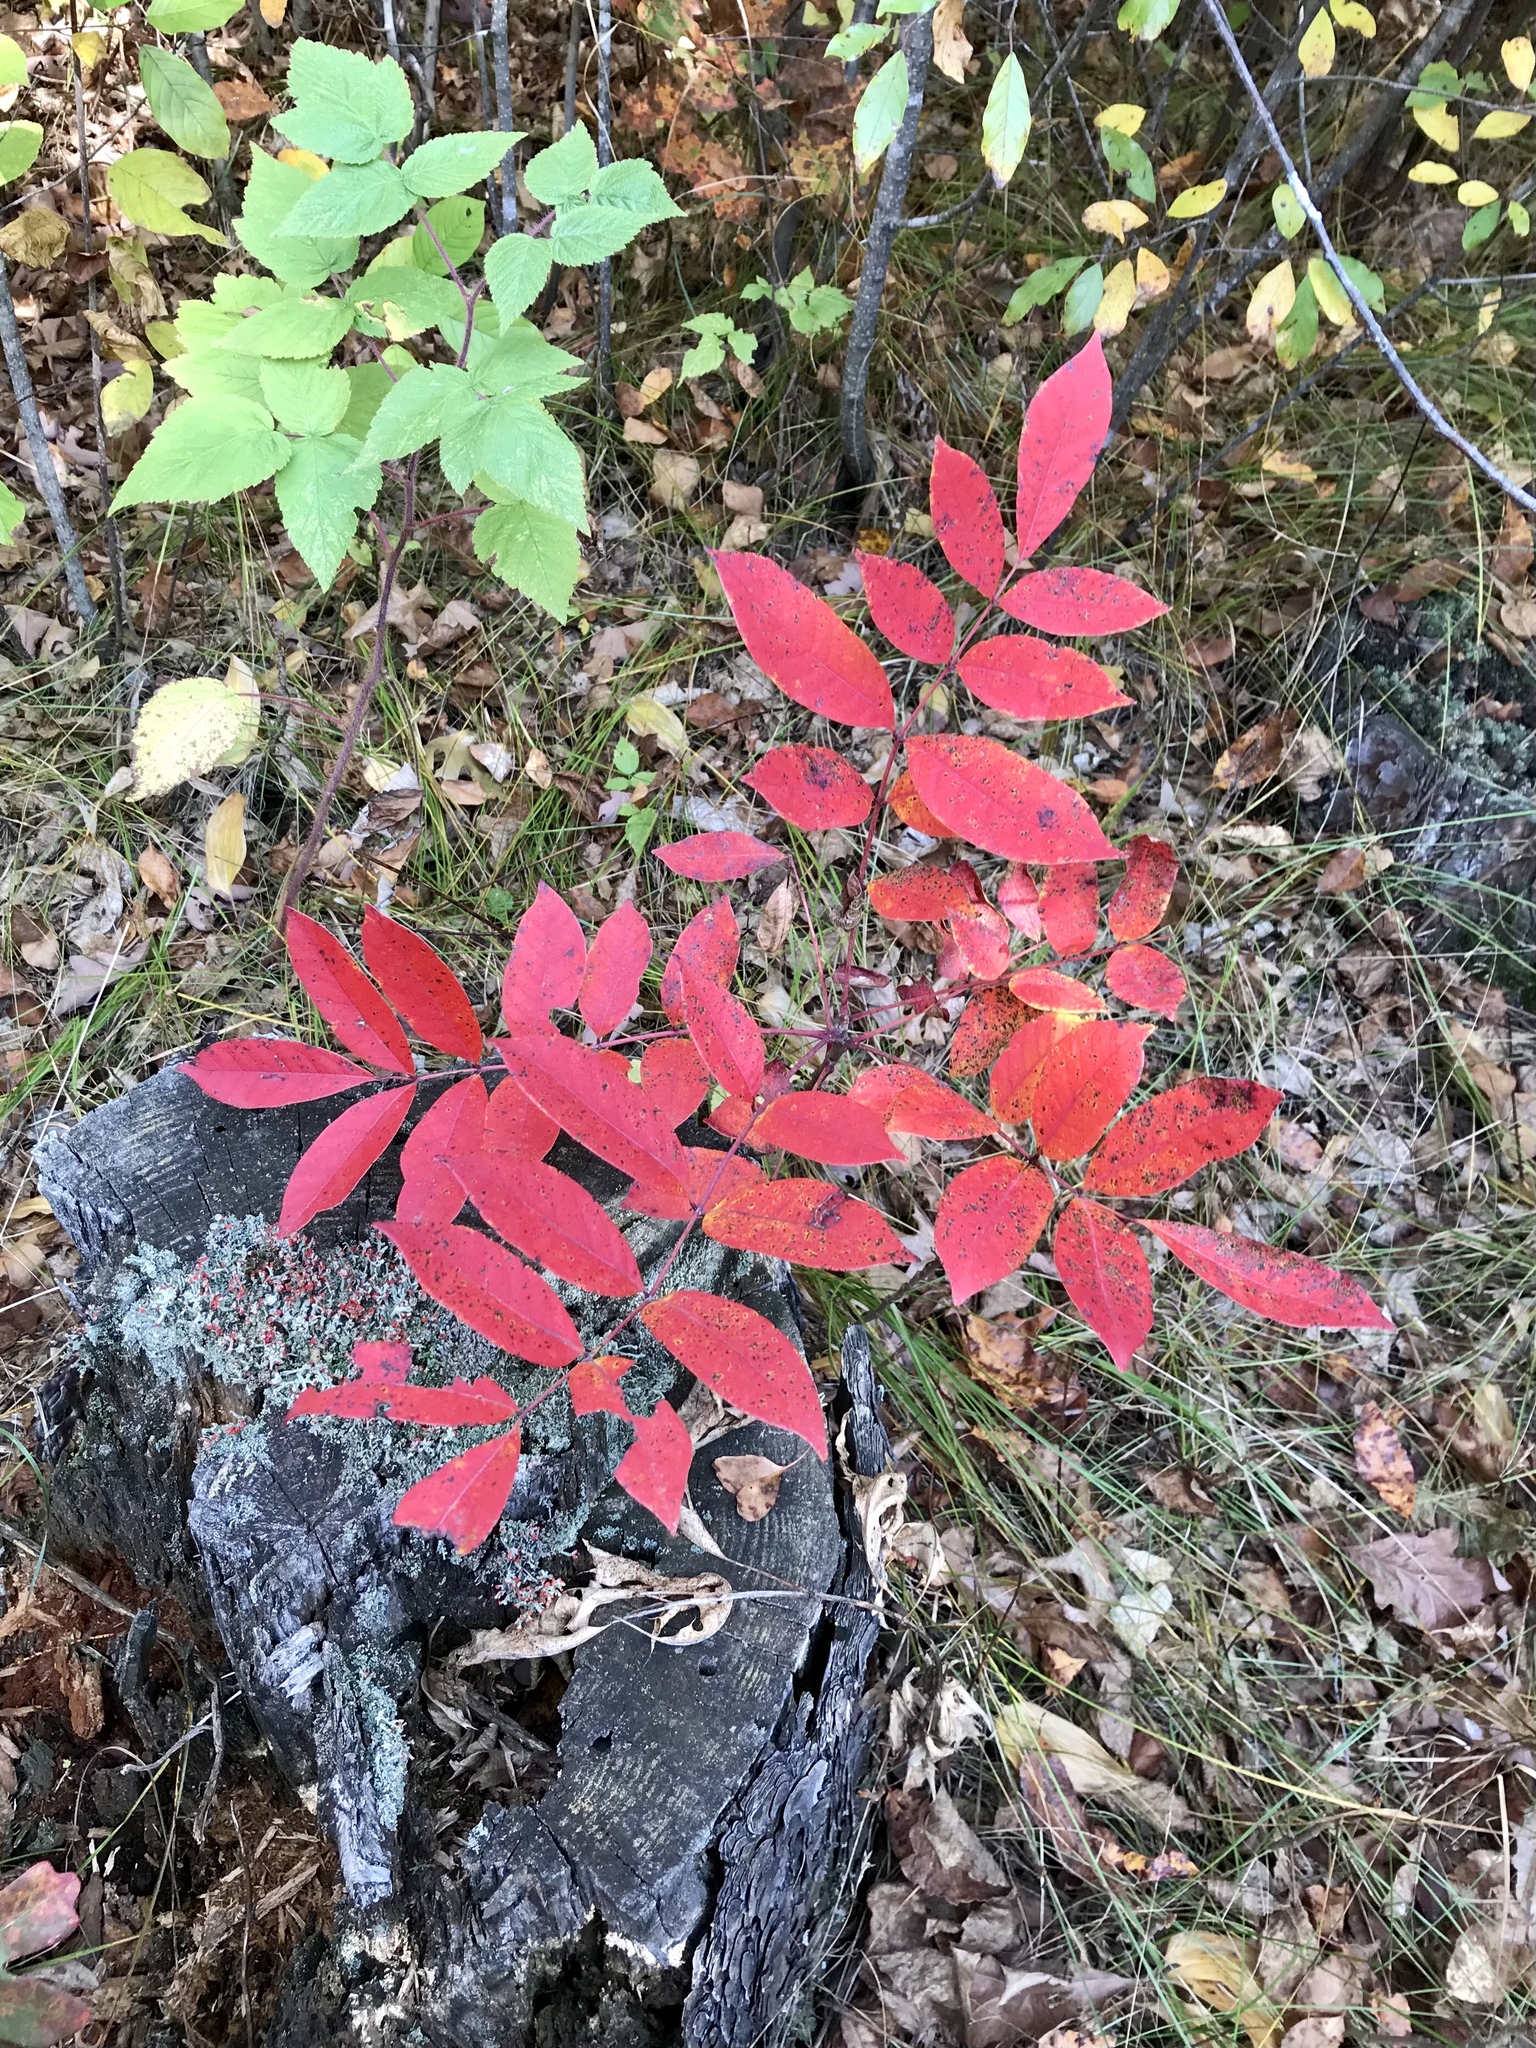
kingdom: Plantae
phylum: Tracheophyta
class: Magnoliopsida
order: Sapindales
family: Anacardiaceae
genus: Toxicodendron
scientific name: Toxicodendron vernix
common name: Poison sumac
